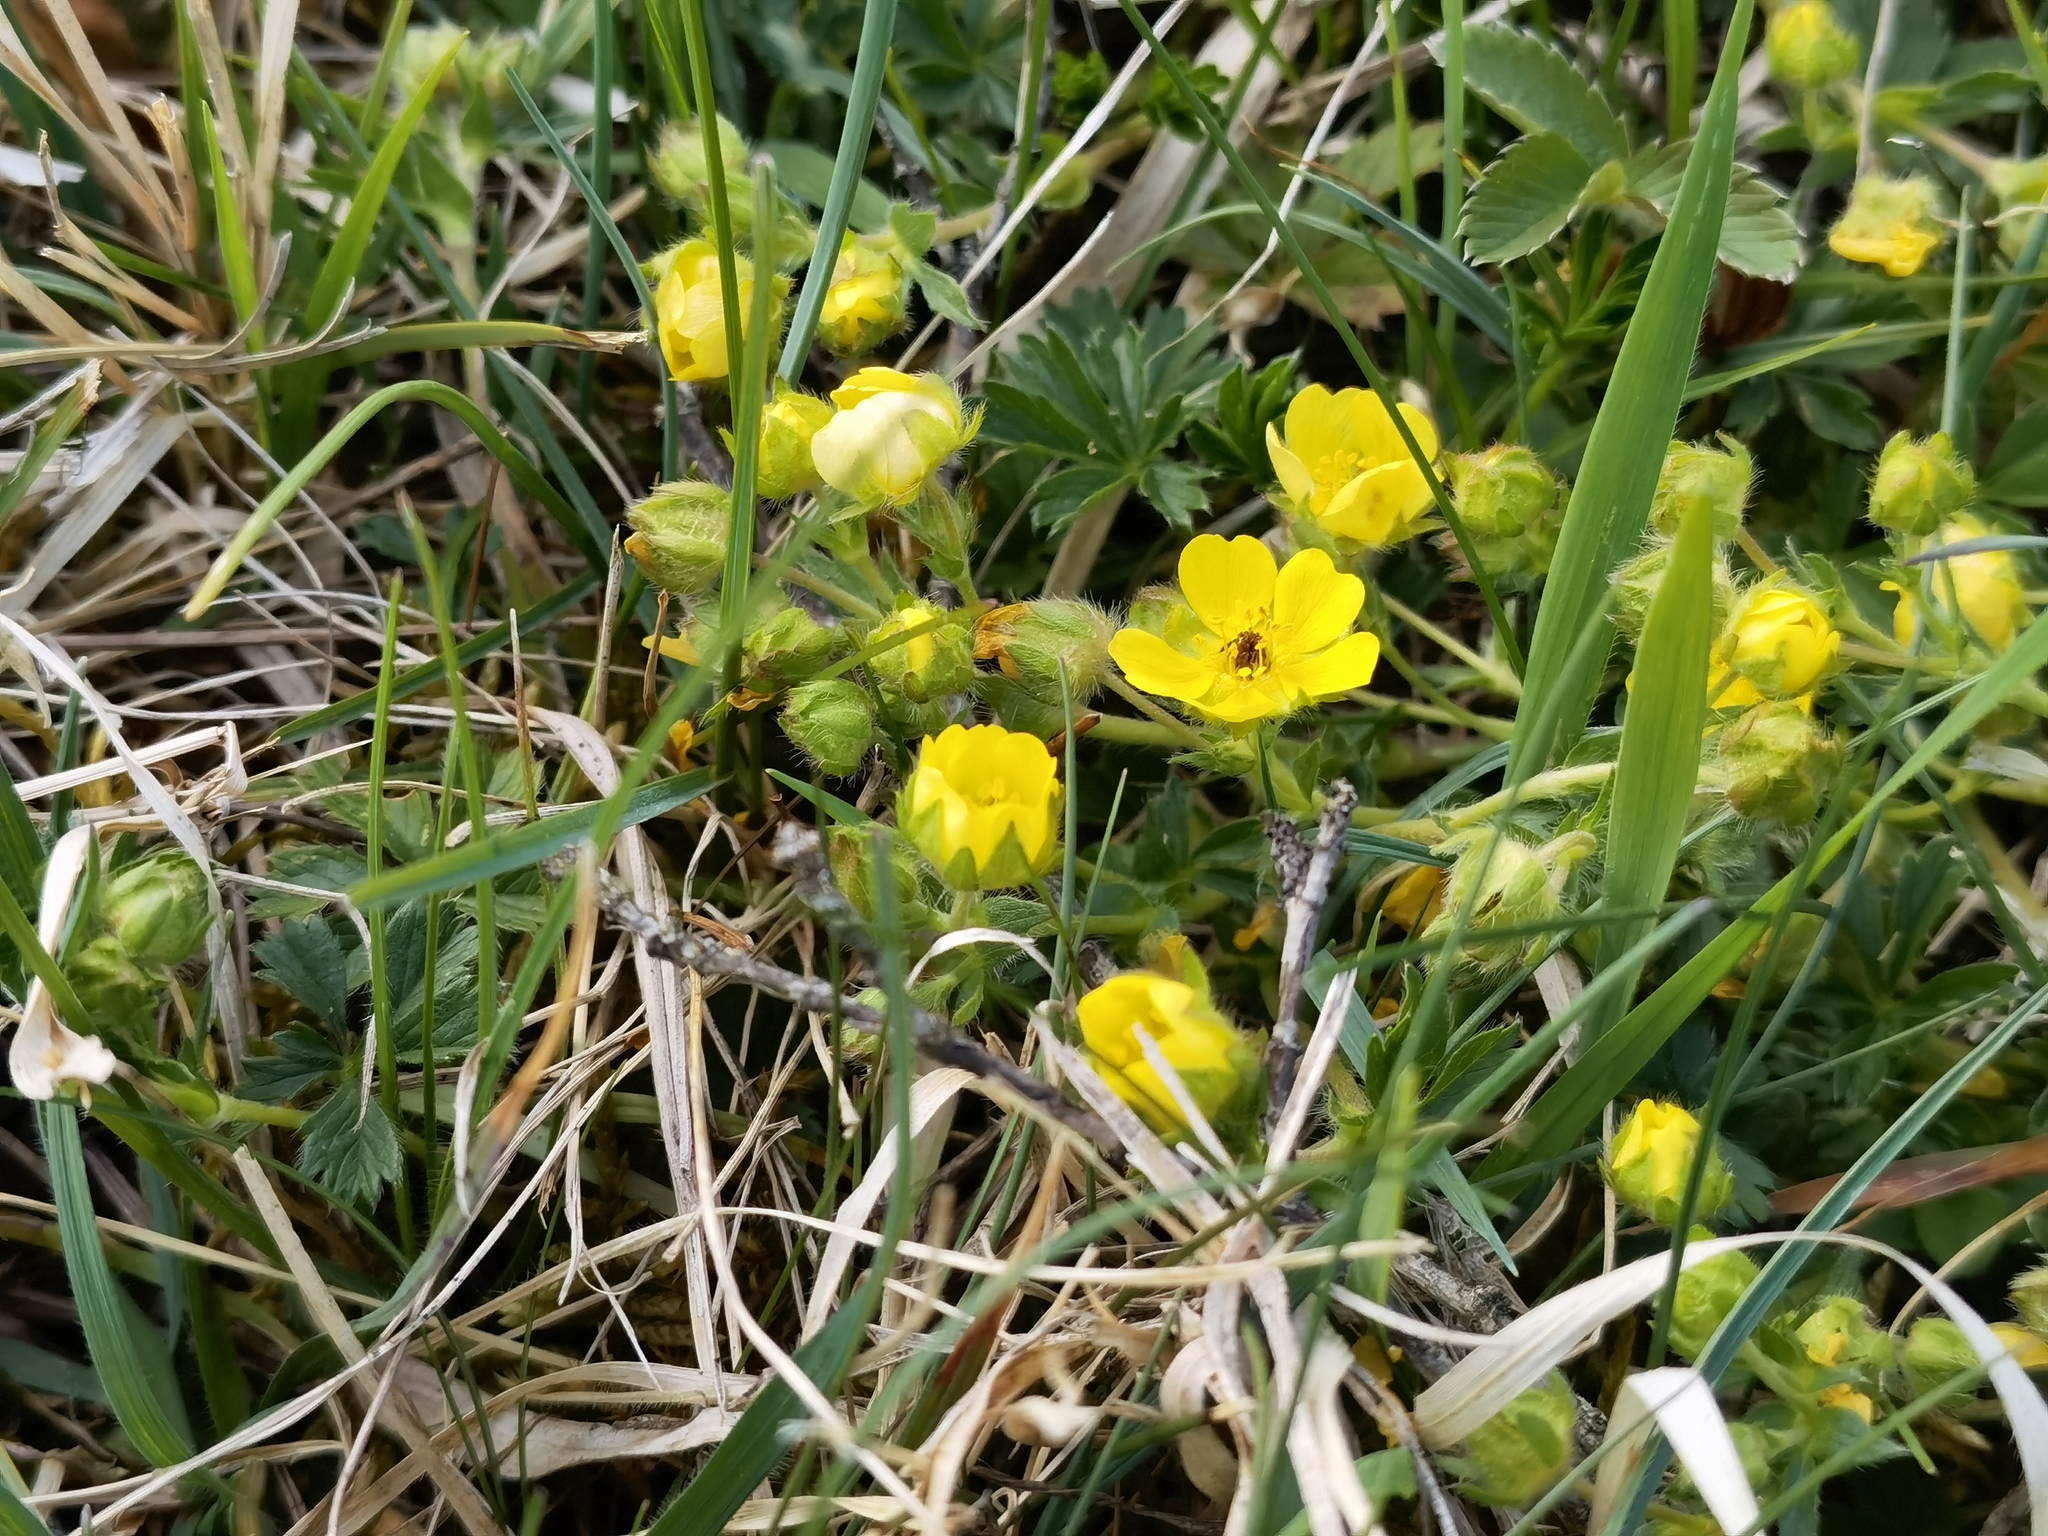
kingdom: Plantae
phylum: Tracheophyta
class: Magnoliopsida
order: Rosales
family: Rosaceae
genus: Potentilla
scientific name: Potentilla verna
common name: Spring cinquefoil
